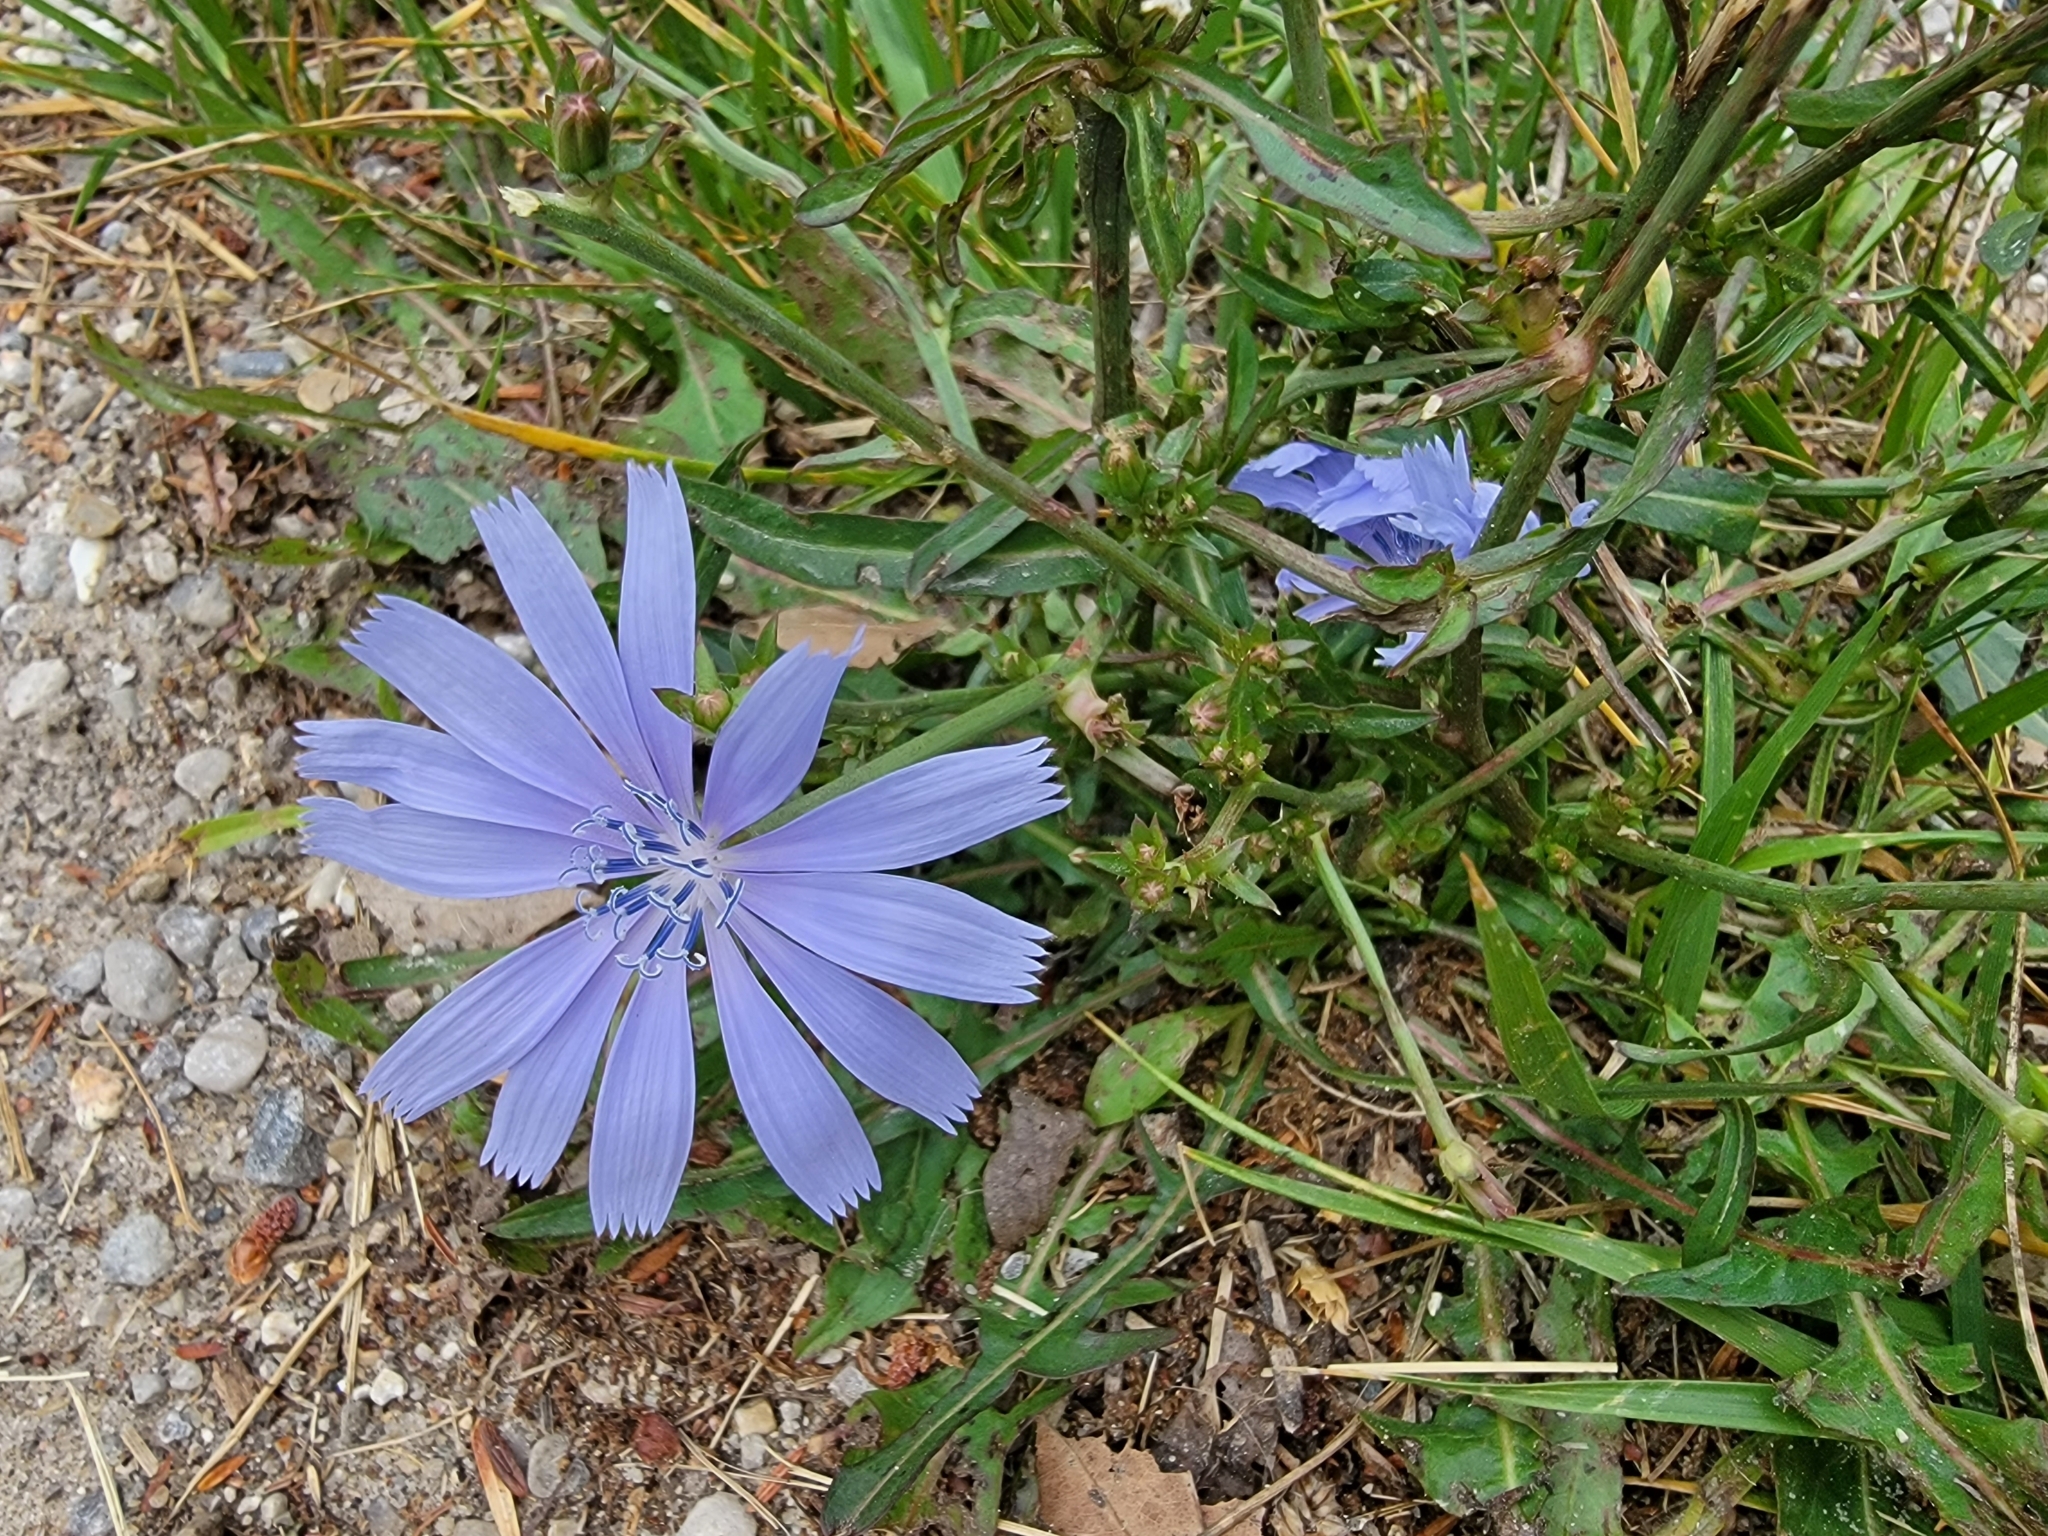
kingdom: Plantae
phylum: Tracheophyta
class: Magnoliopsida
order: Asterales
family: Asteraceae
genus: Cichorium
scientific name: Cichorium intybus
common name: Chicory
